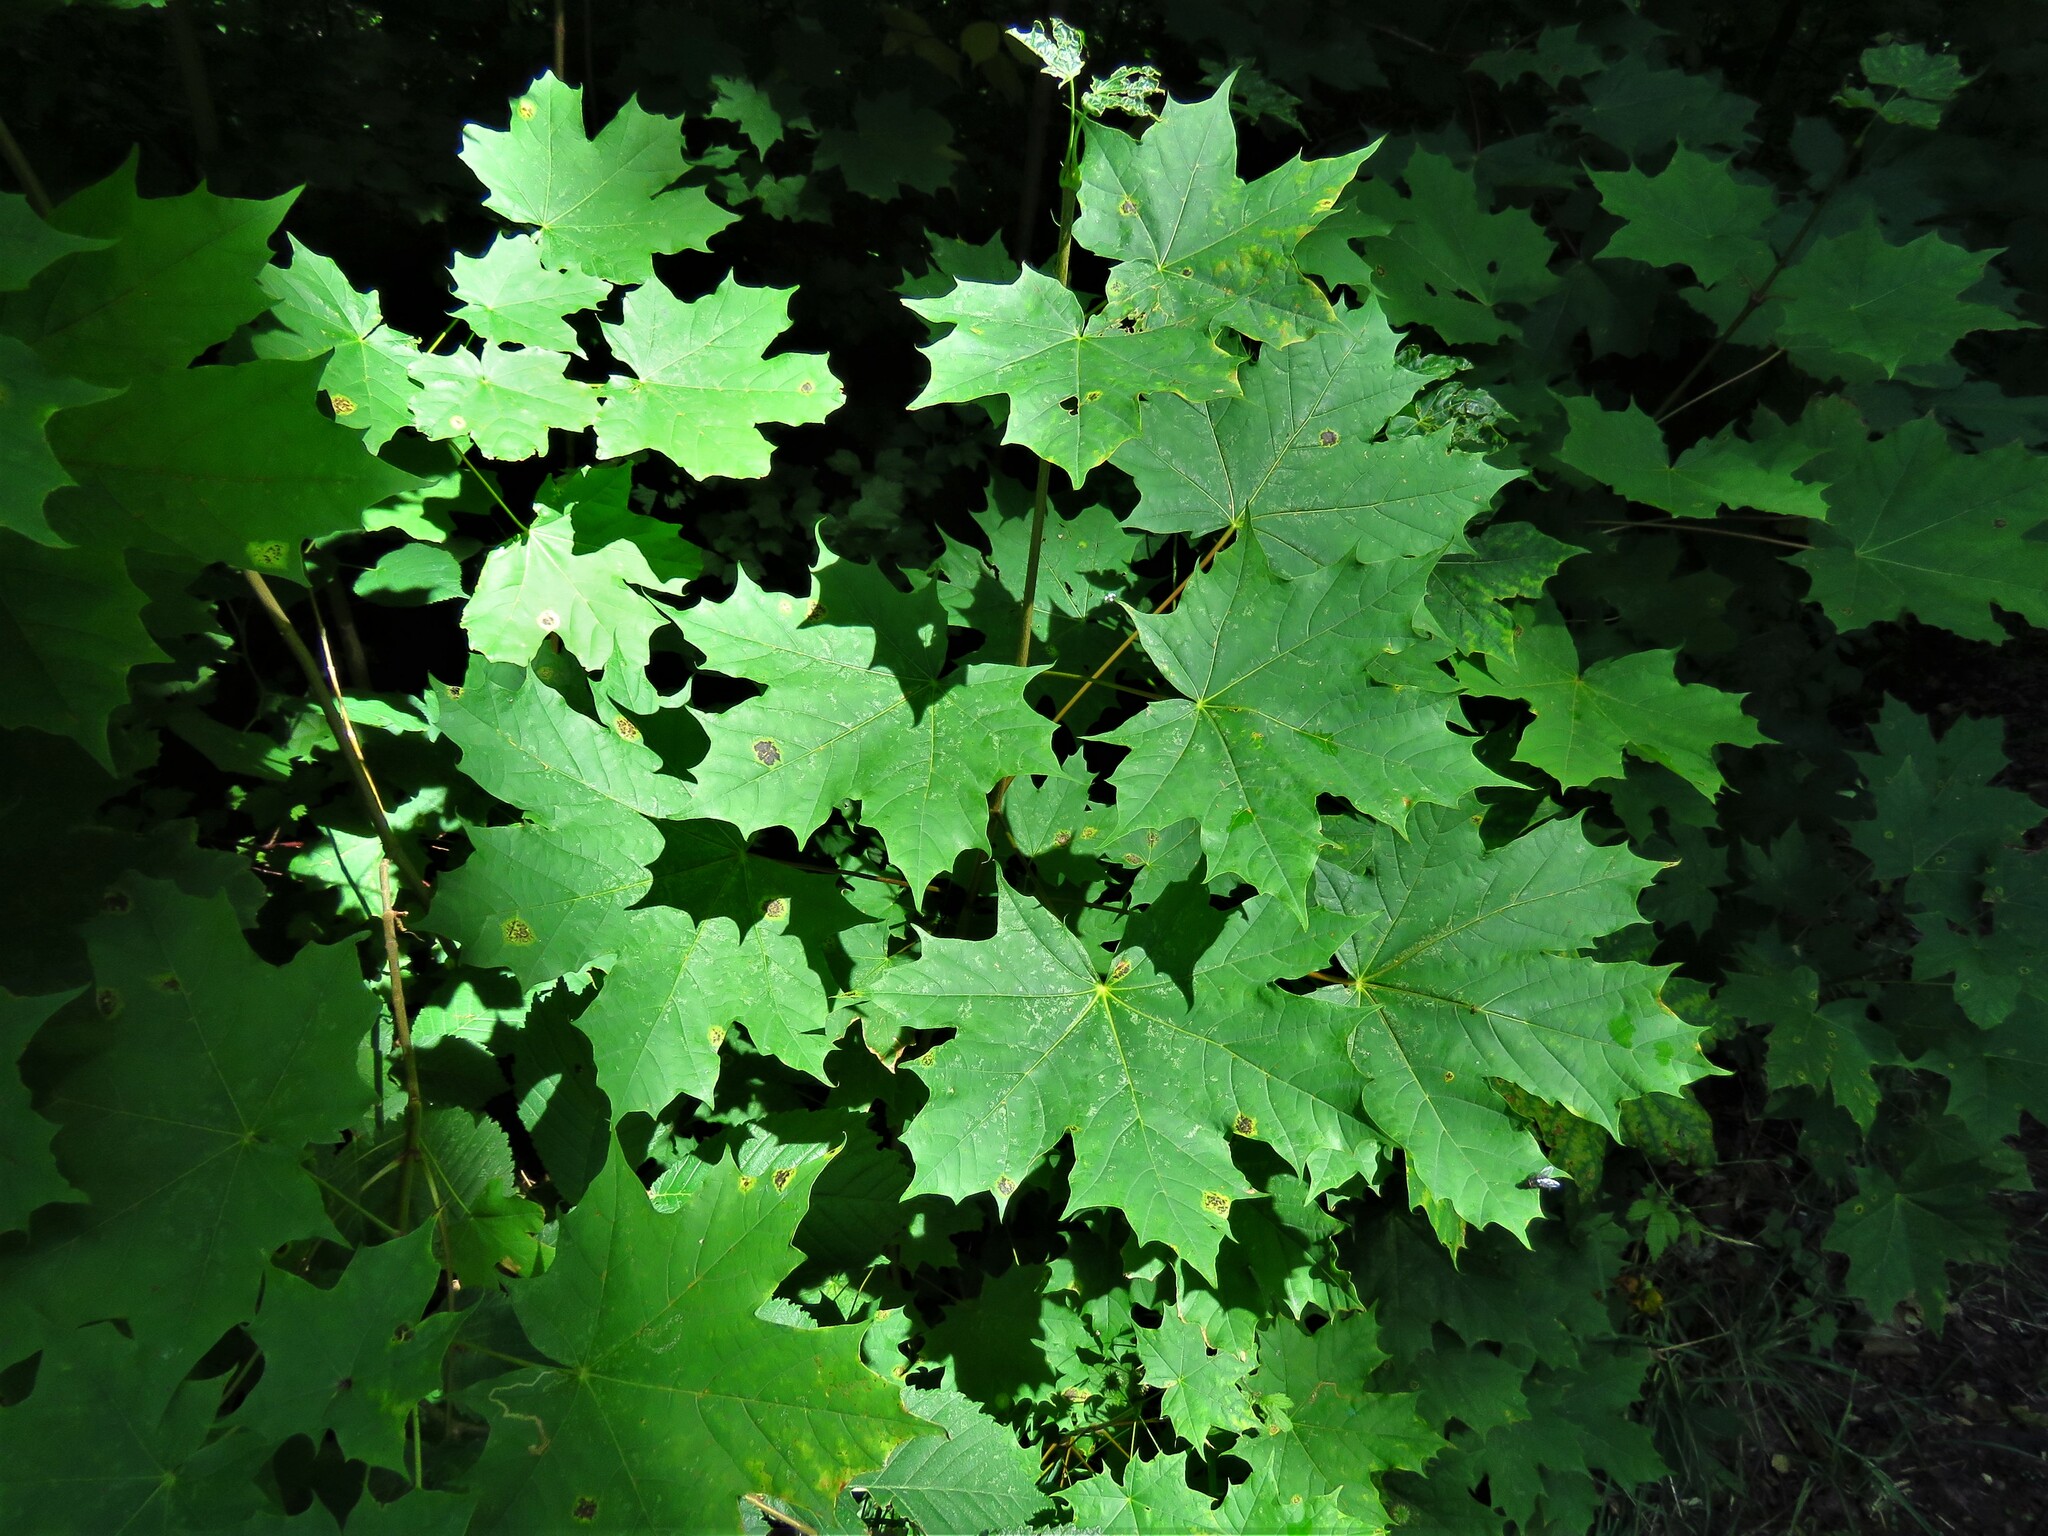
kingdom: Plantae
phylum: Tracheophyta
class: Magnoliopsida
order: Sapindales
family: Sapindaceae
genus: Acer
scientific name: Acer platanoides
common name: Norway maple
